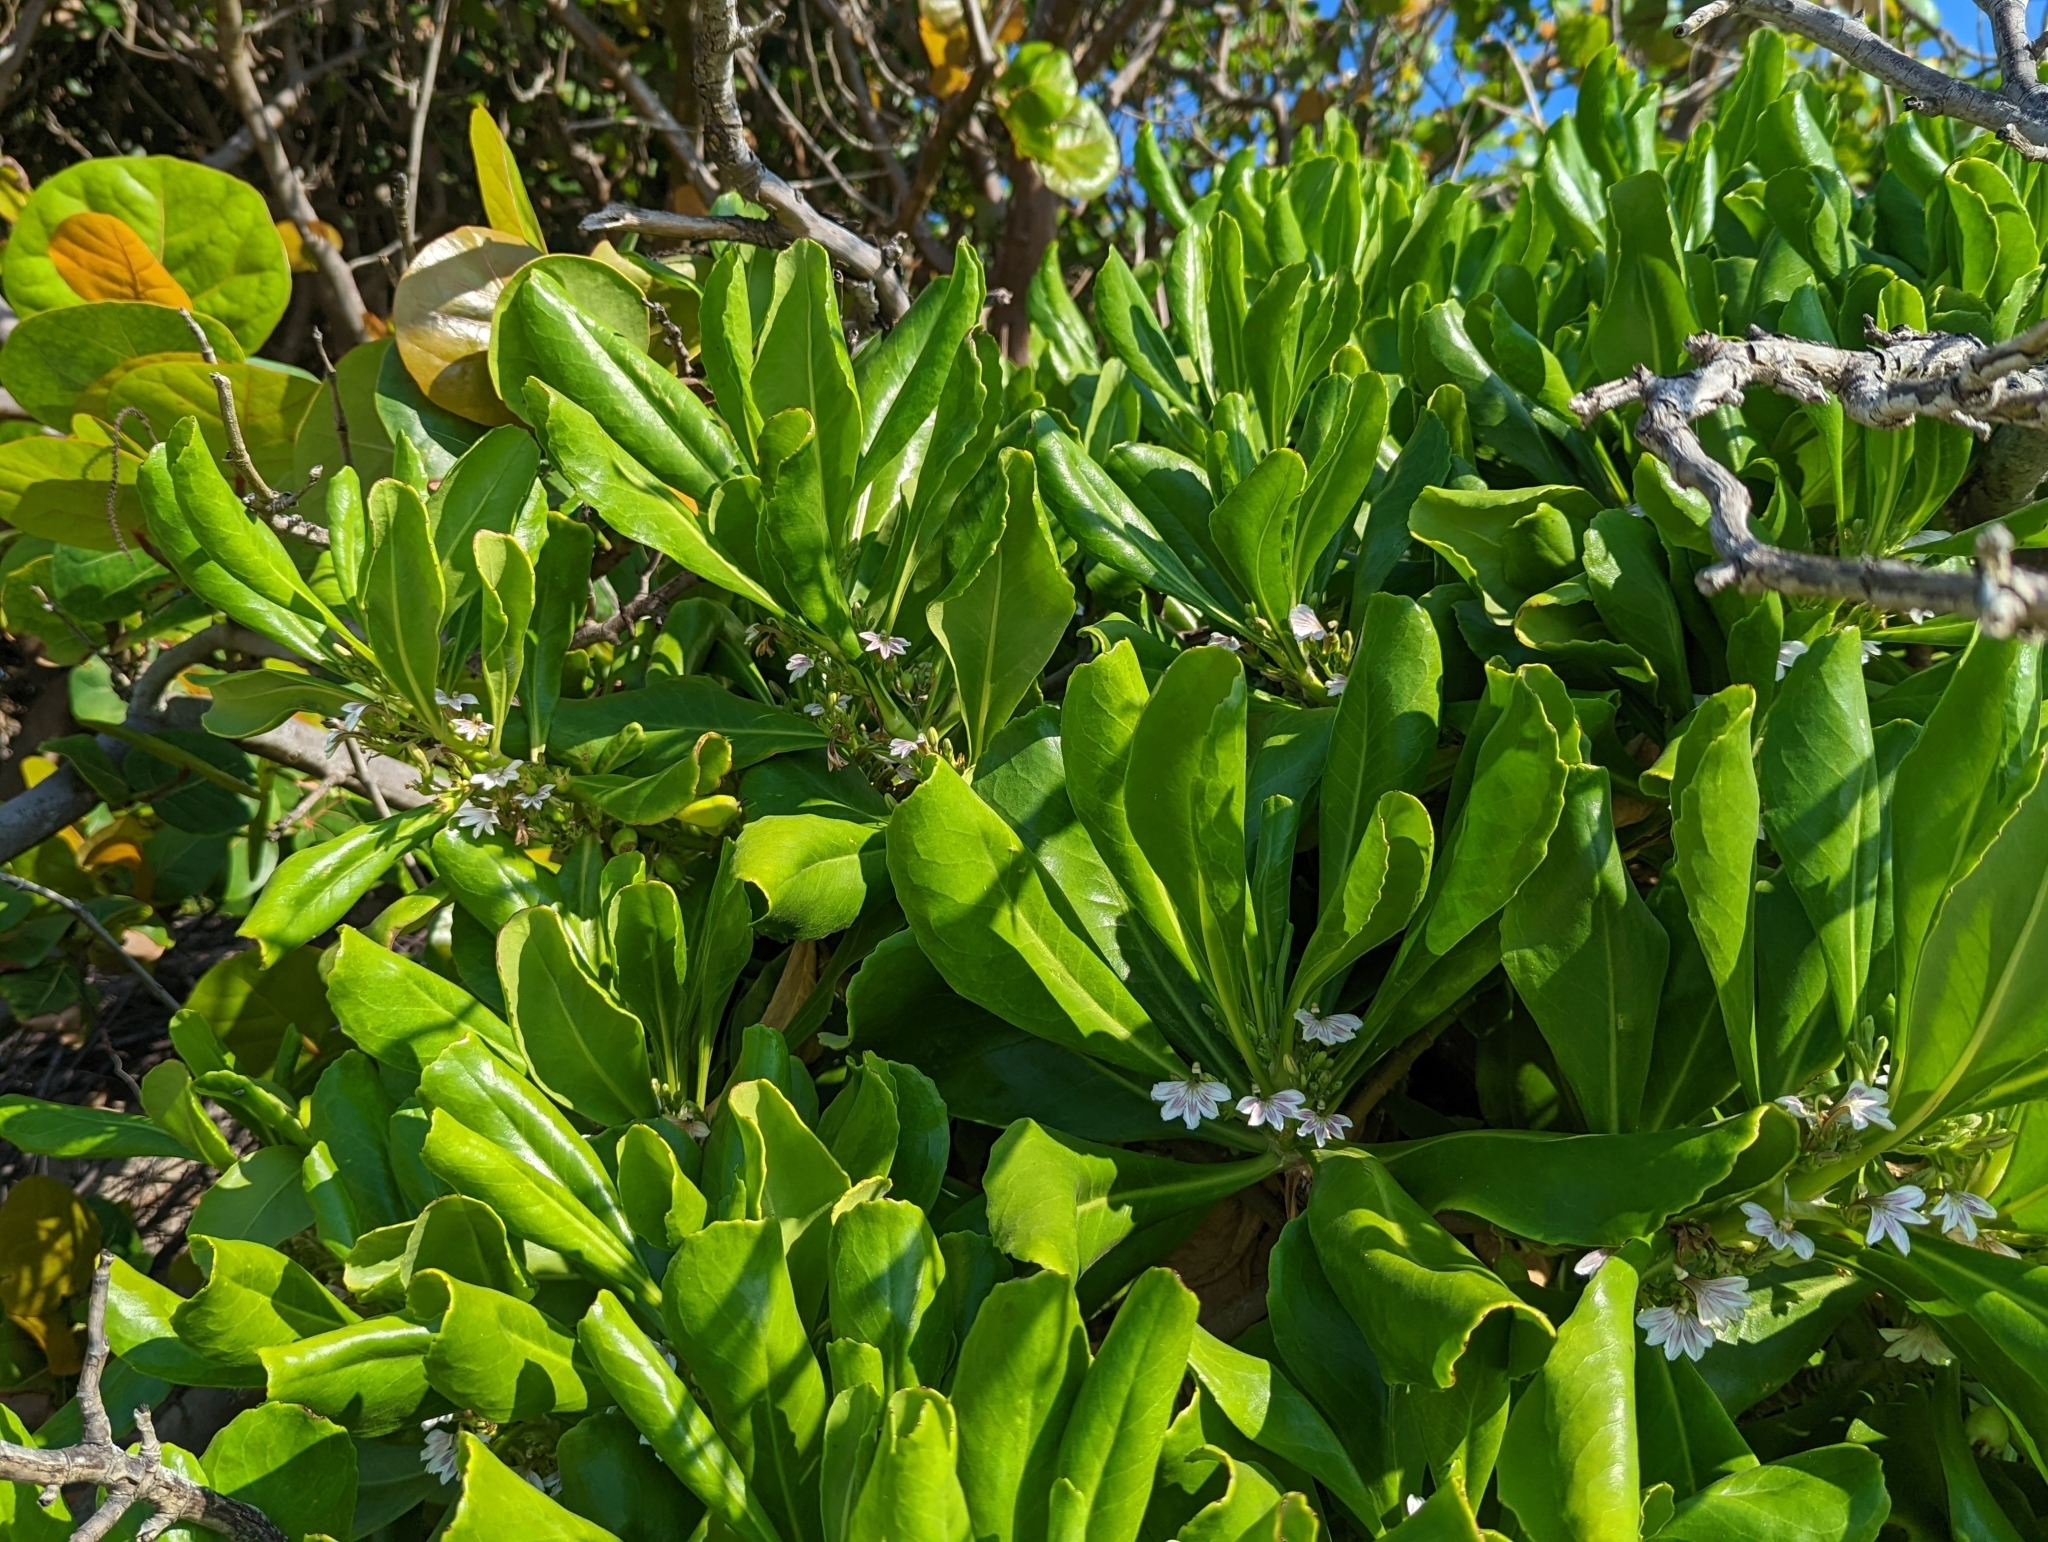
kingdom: Plantae
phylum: Tracheophyta
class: Magnoliopsida
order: Asterales
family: Goodeniaceae
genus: Scaevola
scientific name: Scaevola taccada
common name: Sea lettucetree
